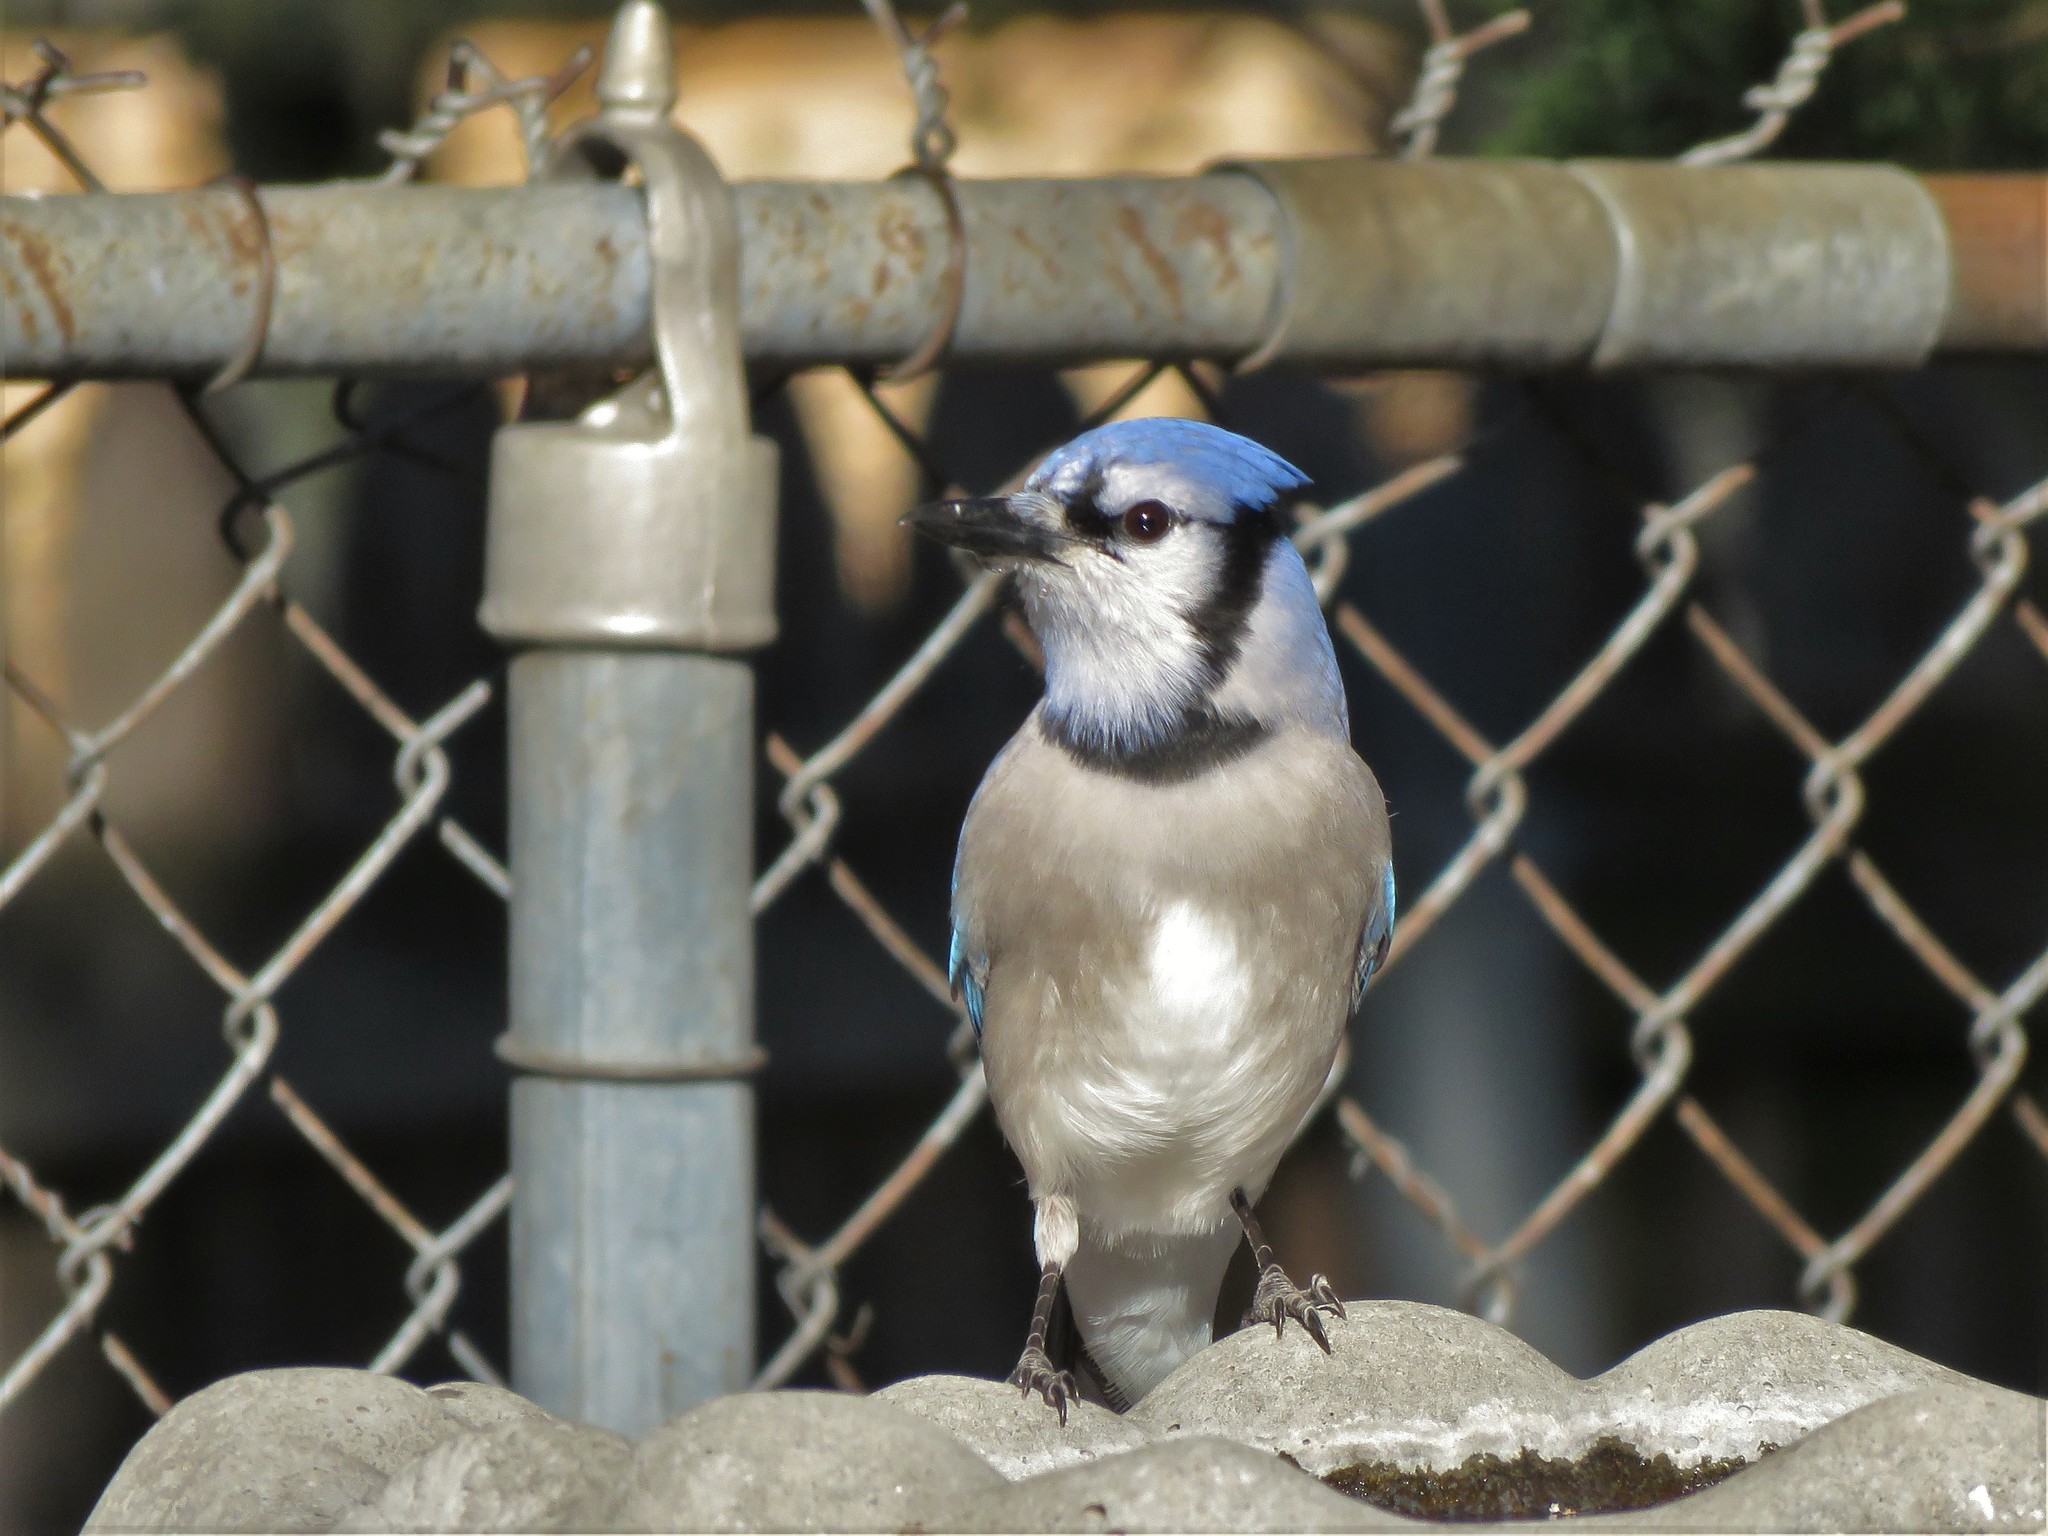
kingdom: Animalia
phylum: Chordata
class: Aves
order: Passeriformes
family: Corvidae
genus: Cyanocitta
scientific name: Cyanocitta cristata
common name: Blue jay
